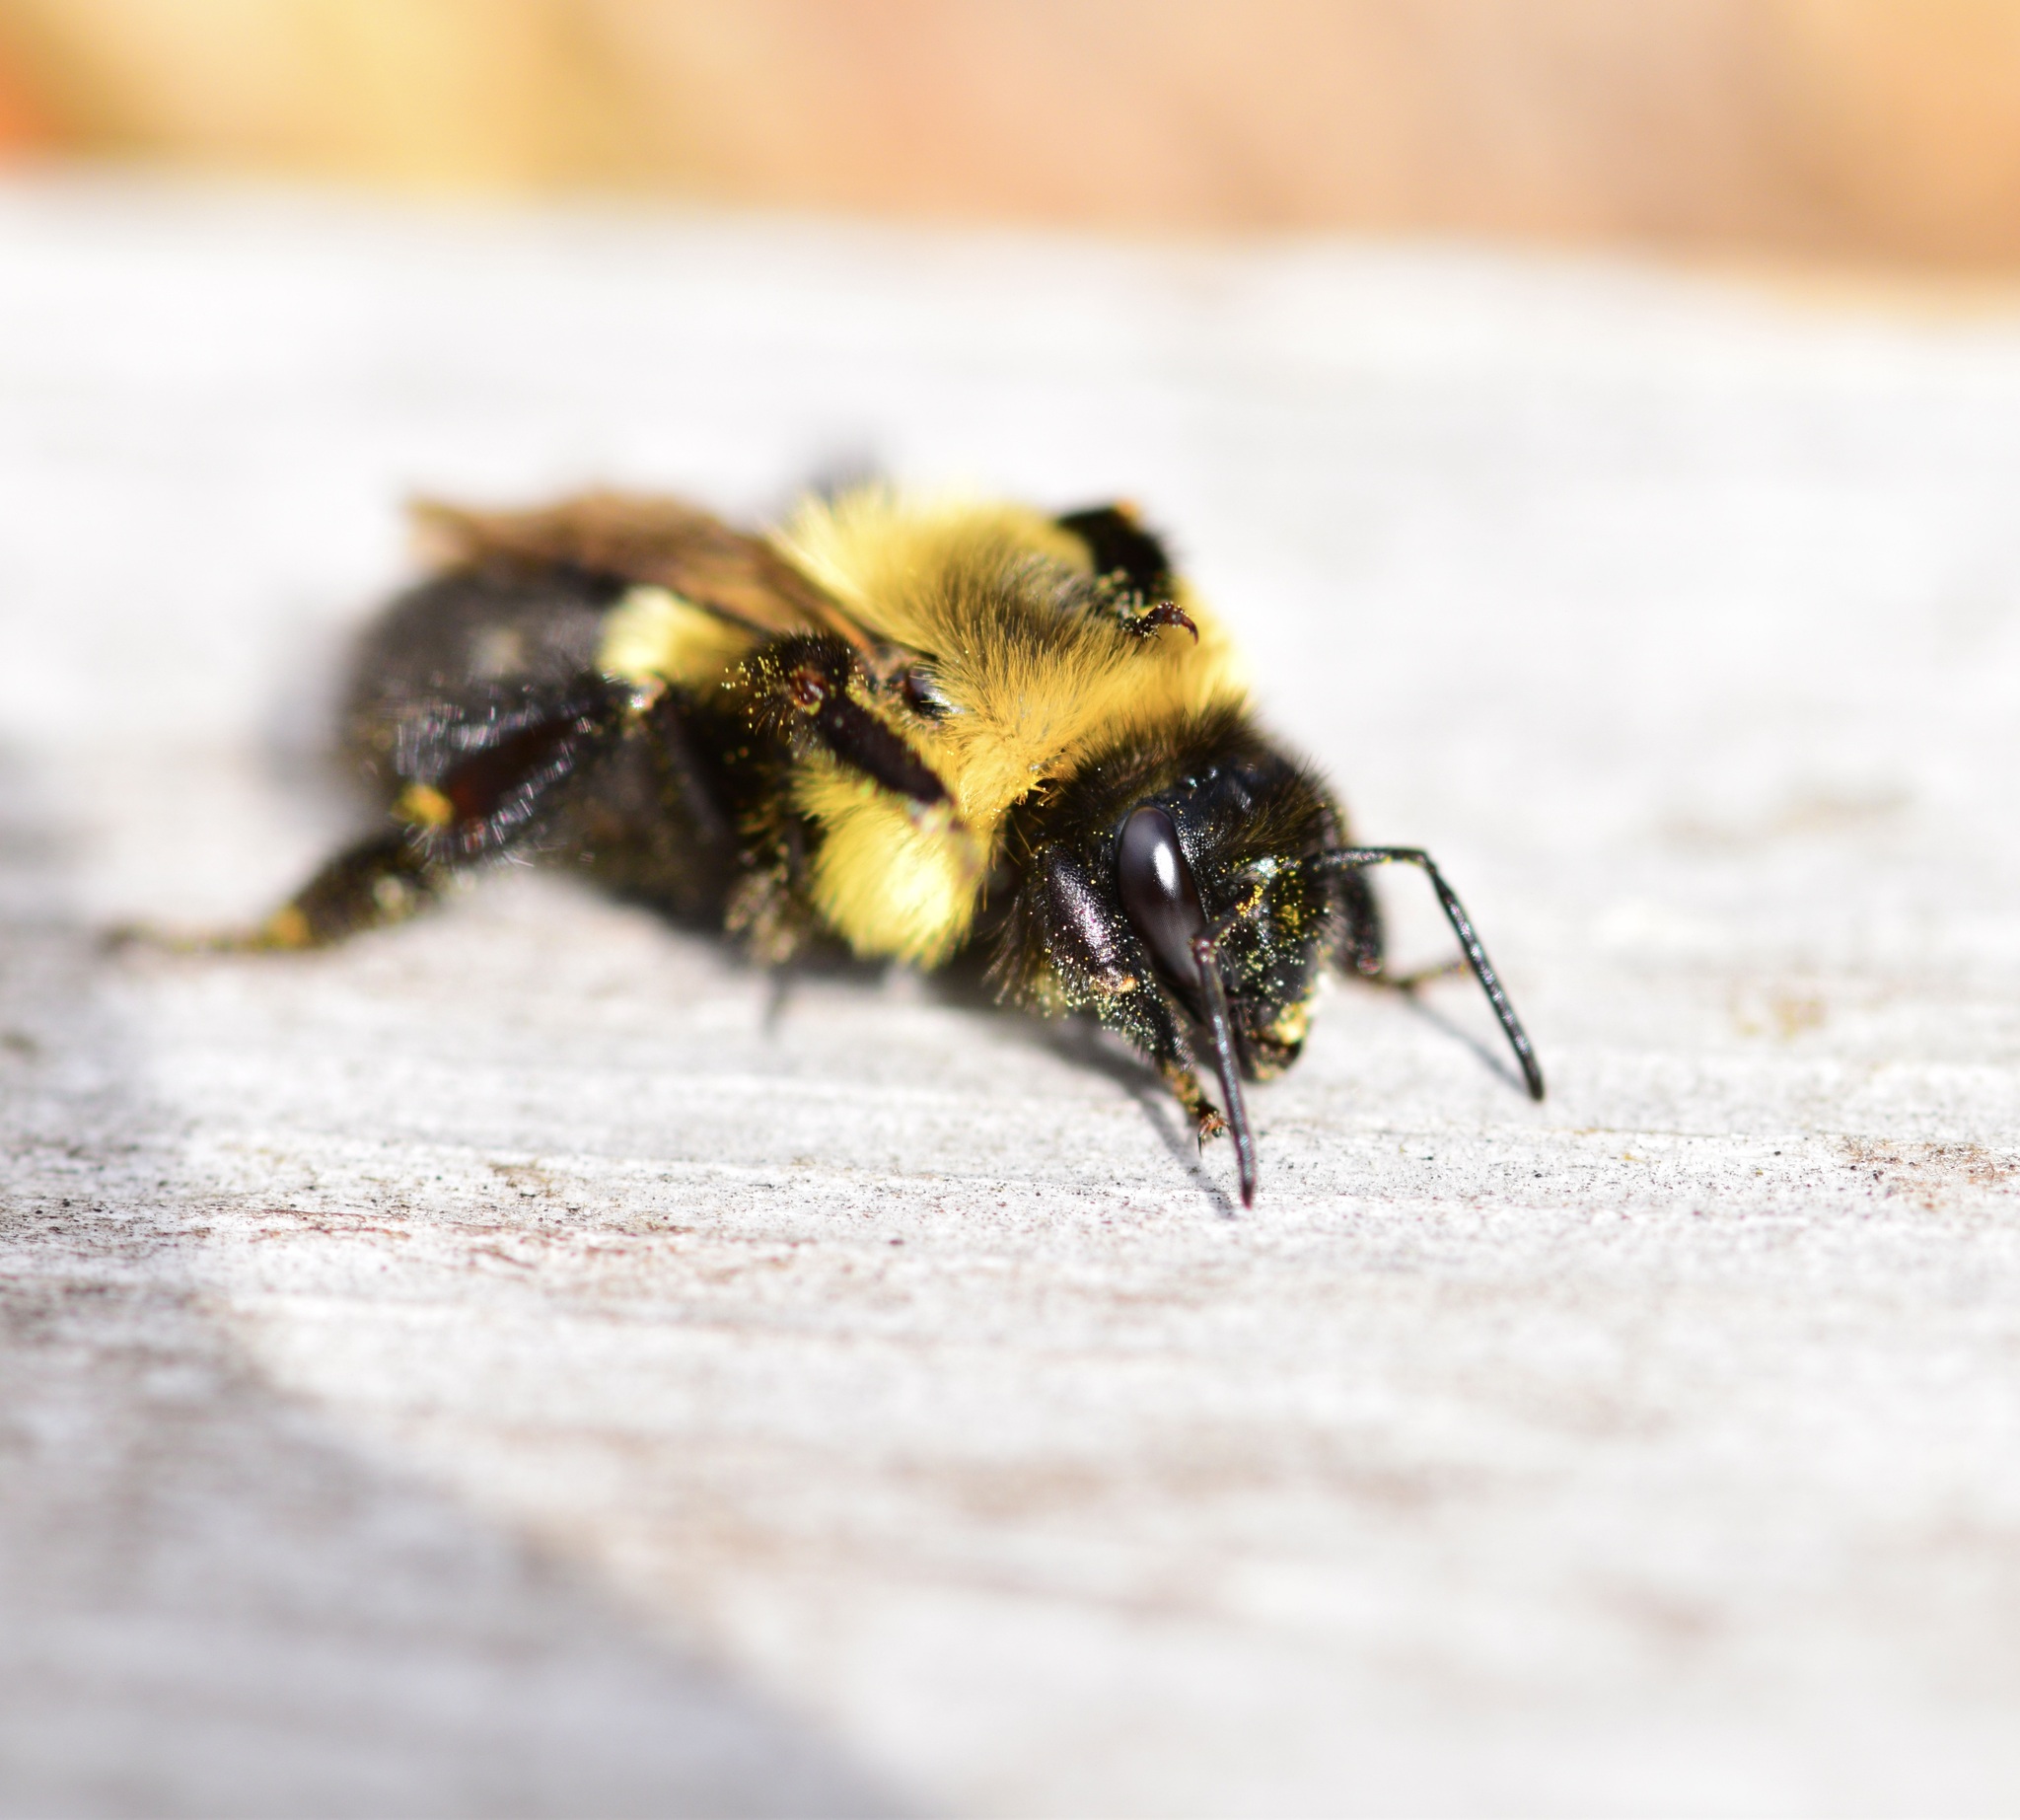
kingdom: Animalia
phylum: Arthropoda
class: Insecta
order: Hymenoptera
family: Apidae
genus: Bombus
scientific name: Bombus impatiens
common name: Common eastern bumble bee
